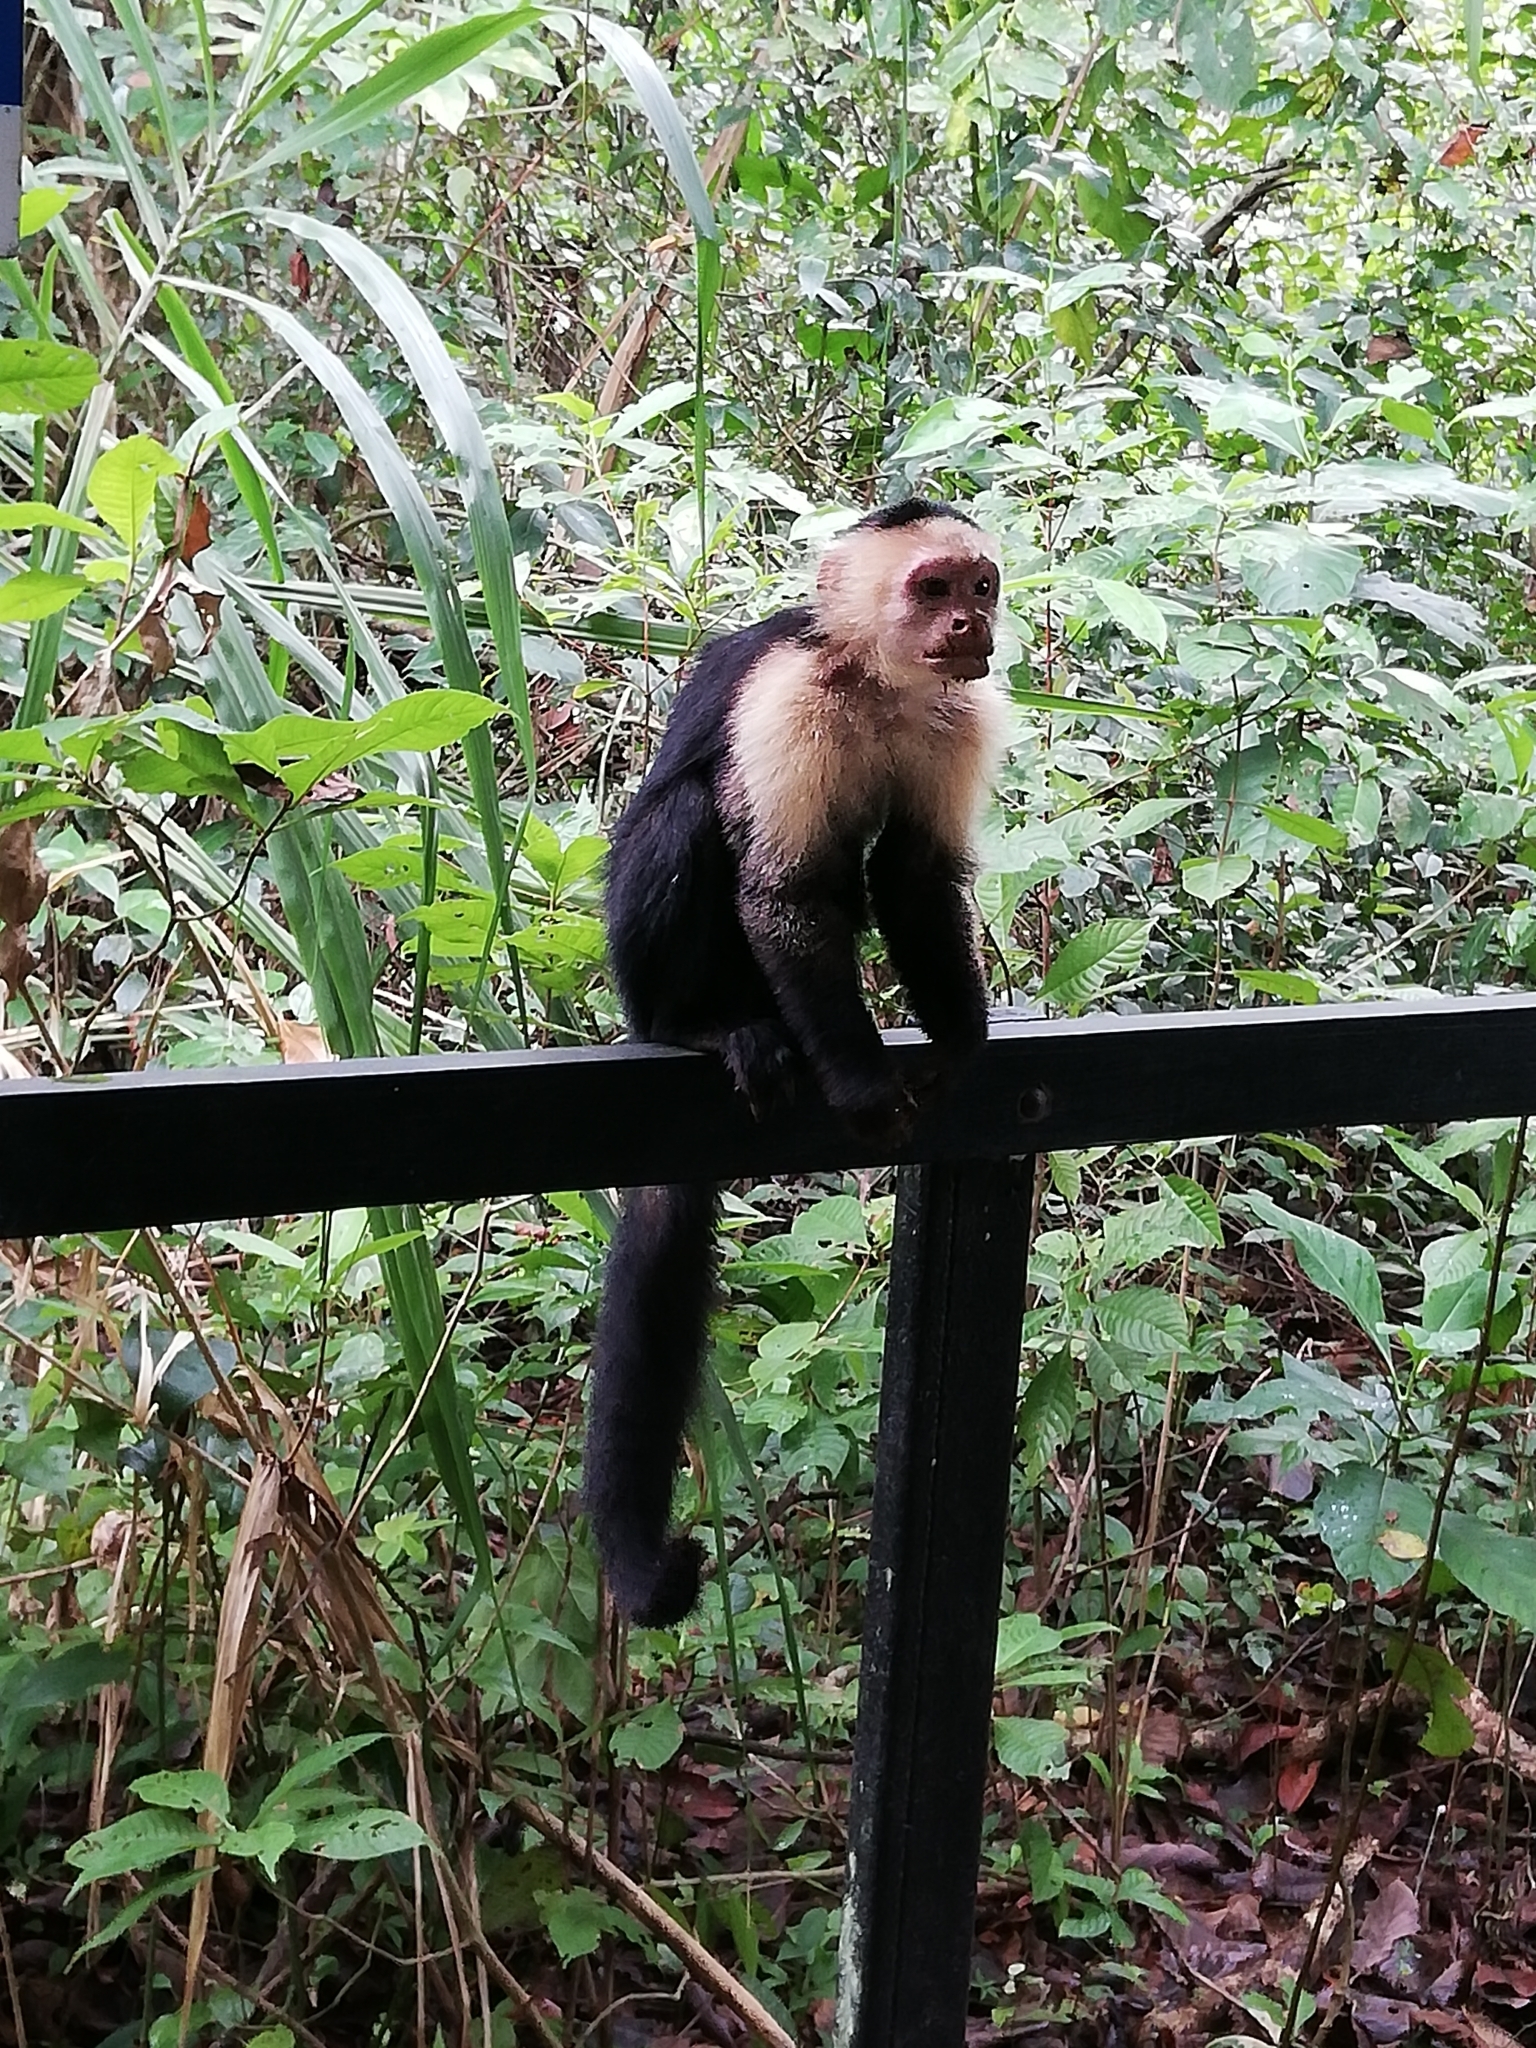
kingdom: Animalia
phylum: Chordata
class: Mammalia
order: Primates
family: Cebidae
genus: Cebus
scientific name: Cebus imitator
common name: Panamanian white-faced capuchin
